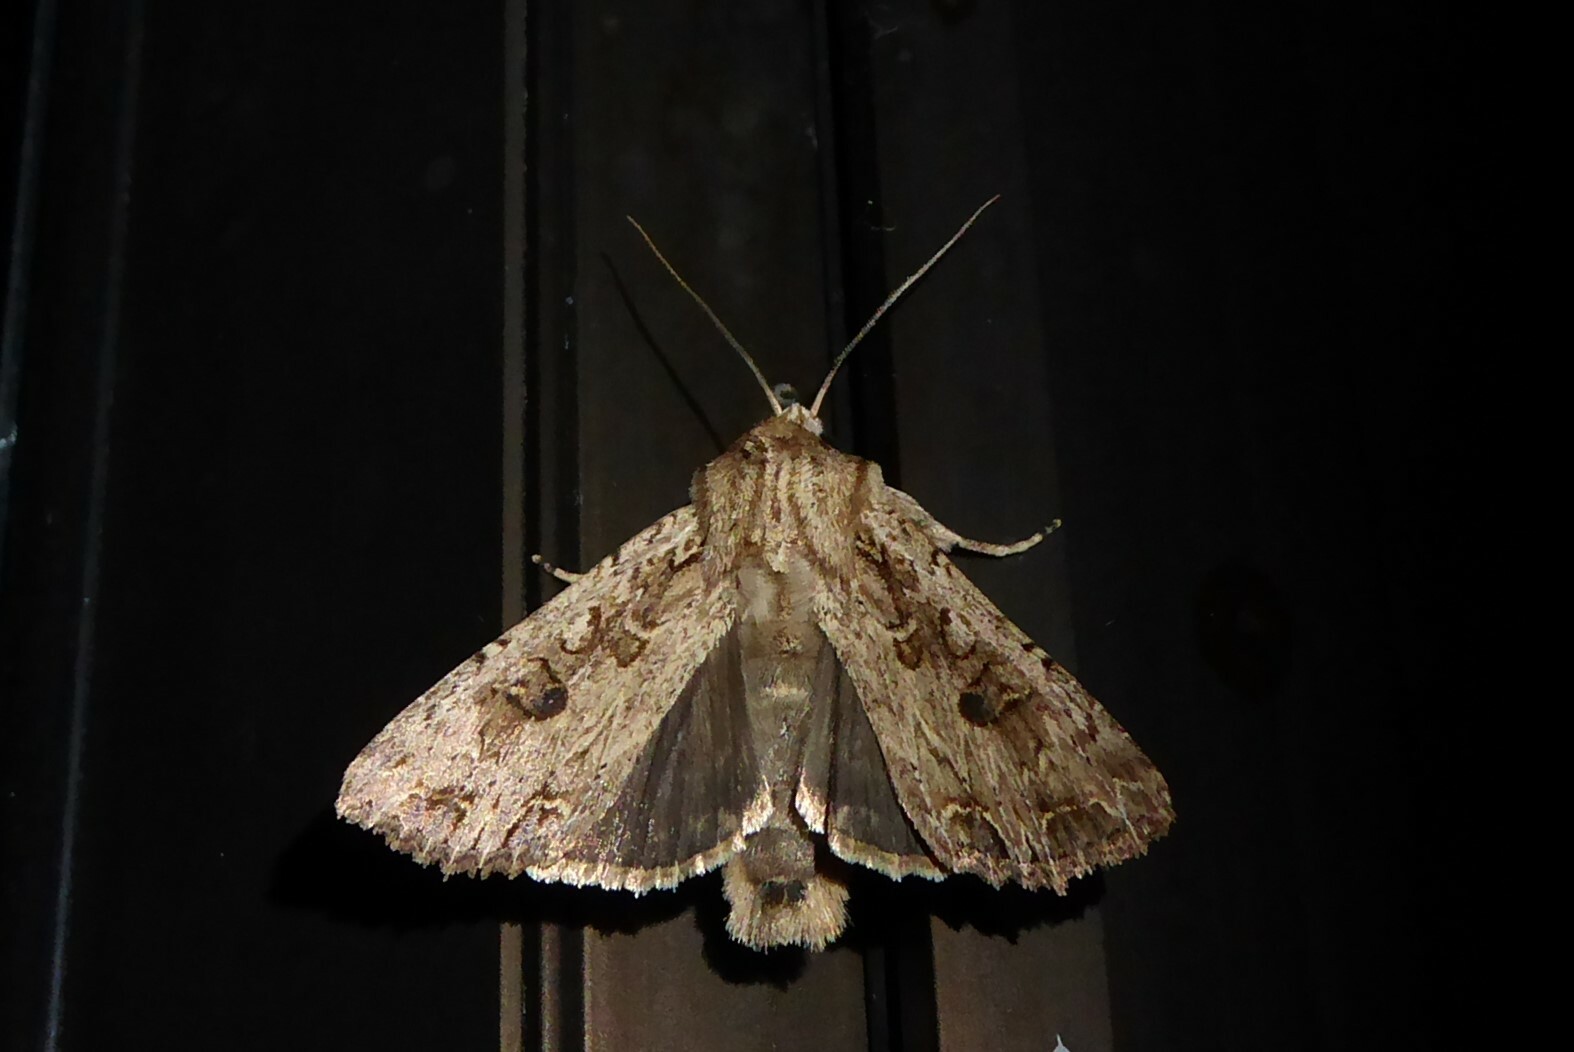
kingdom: Animalia
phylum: Arthropoda
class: Insecta
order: Lepidoptera
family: Noctuidae
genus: Ichneutica
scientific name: Ichneutica lignana
